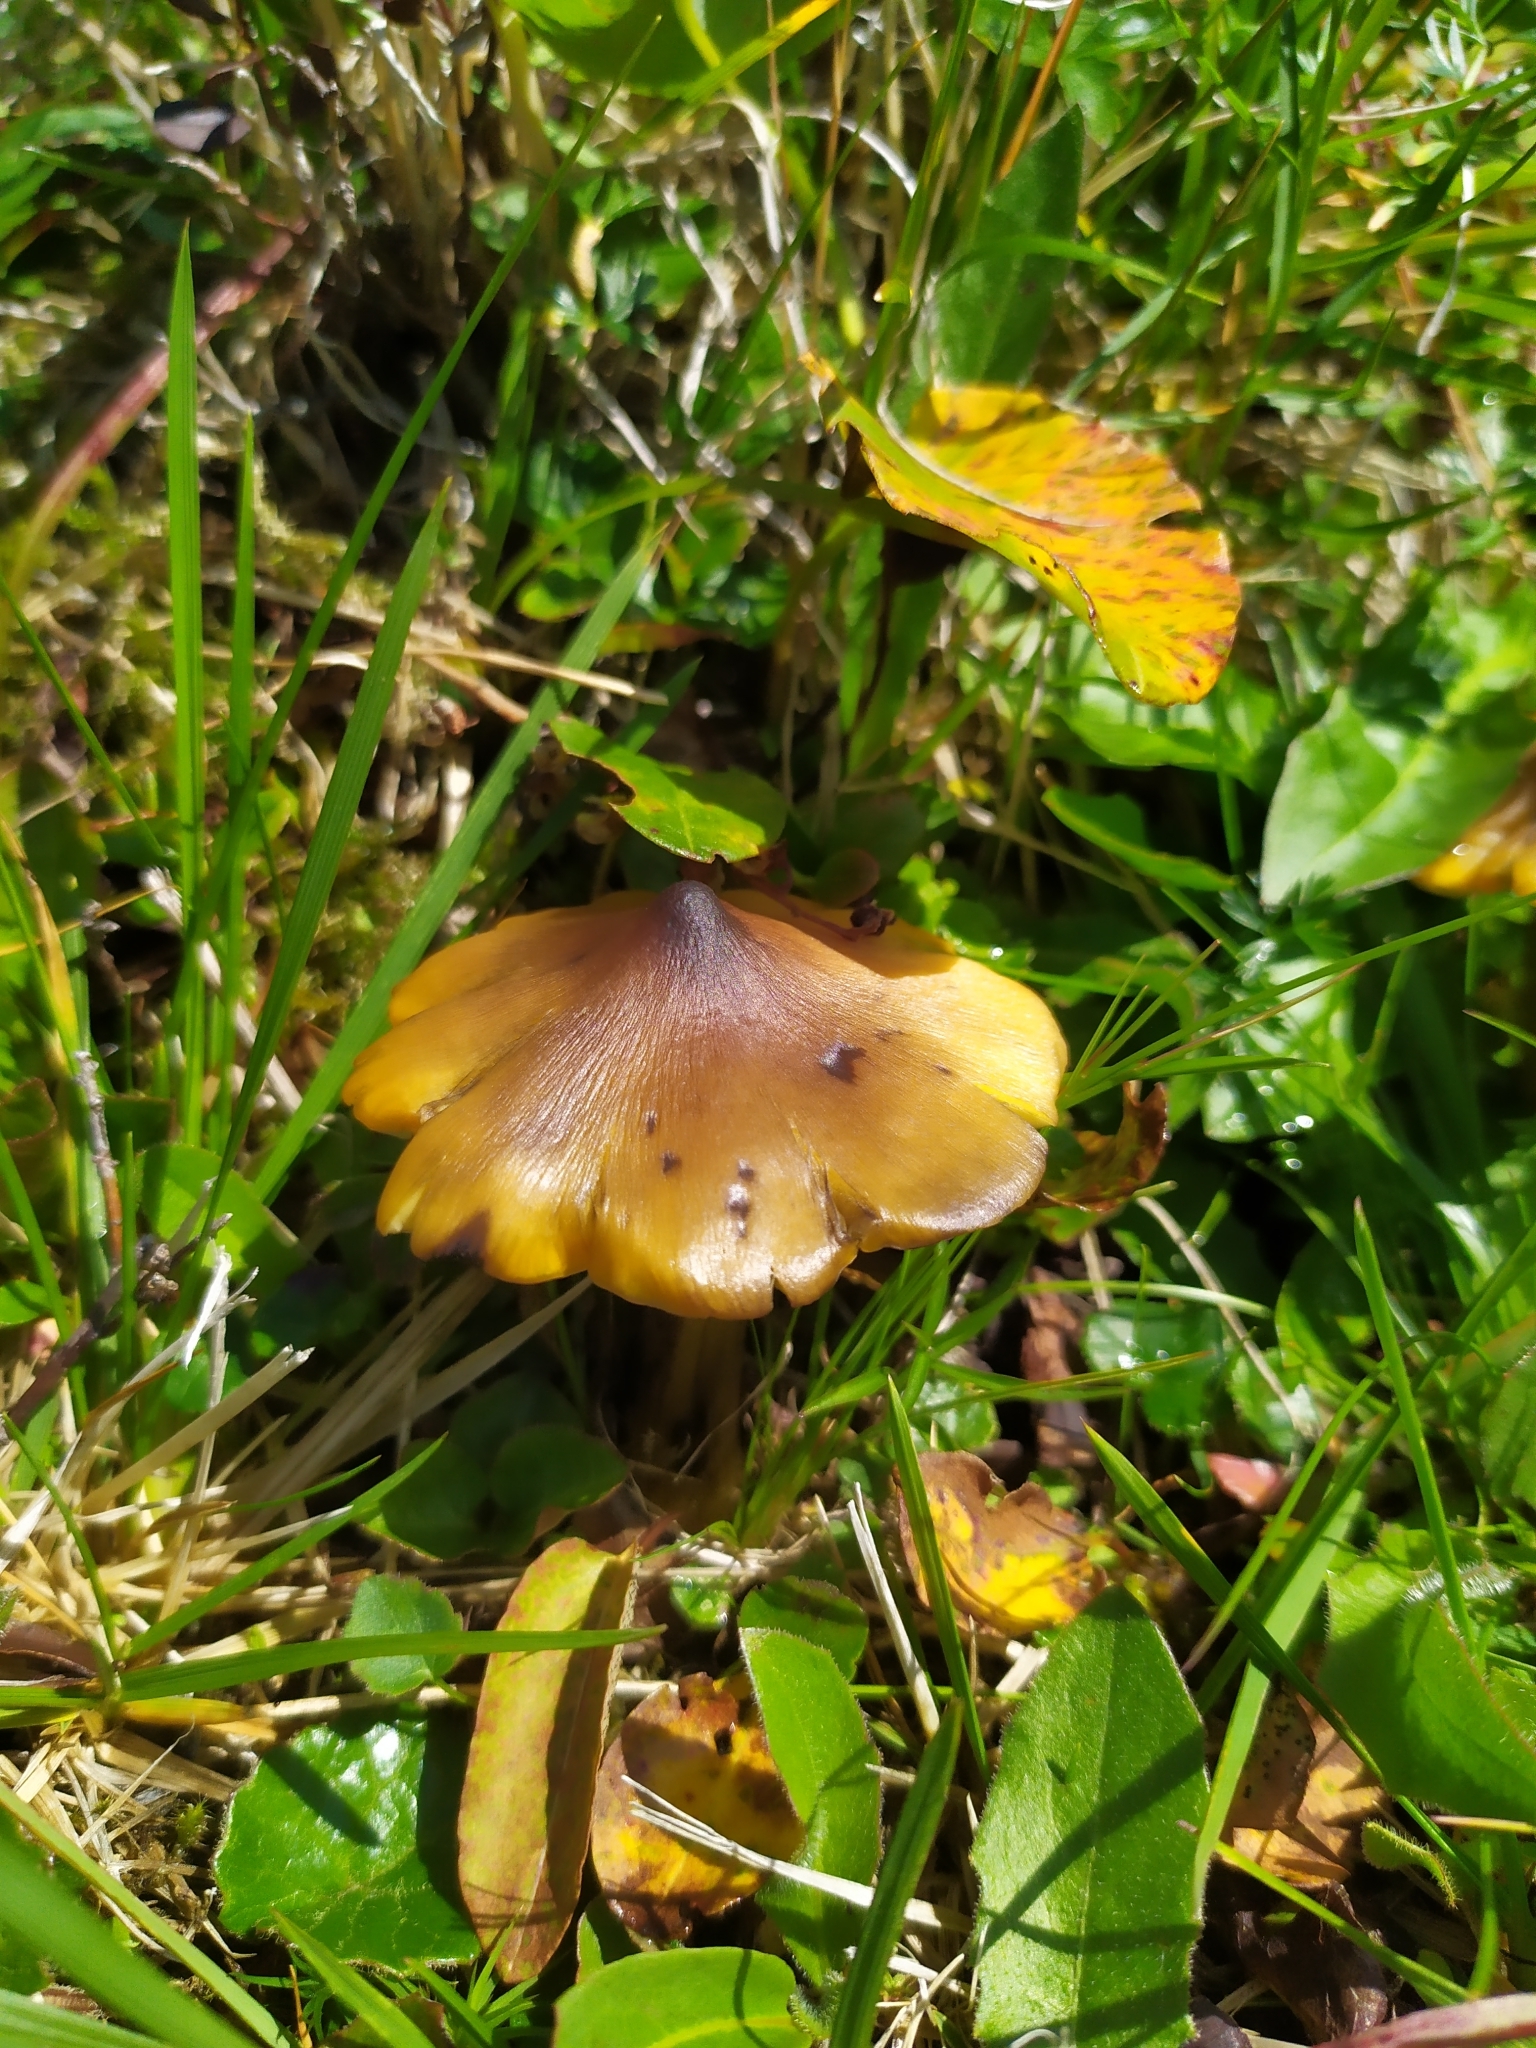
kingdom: Fungi
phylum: Basidiomycota
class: Agaricomycetes
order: Agaricales
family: Hygrophoraceae
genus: Hygrocybe
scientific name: Hygrocybe conica
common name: Blackening wax-cap
